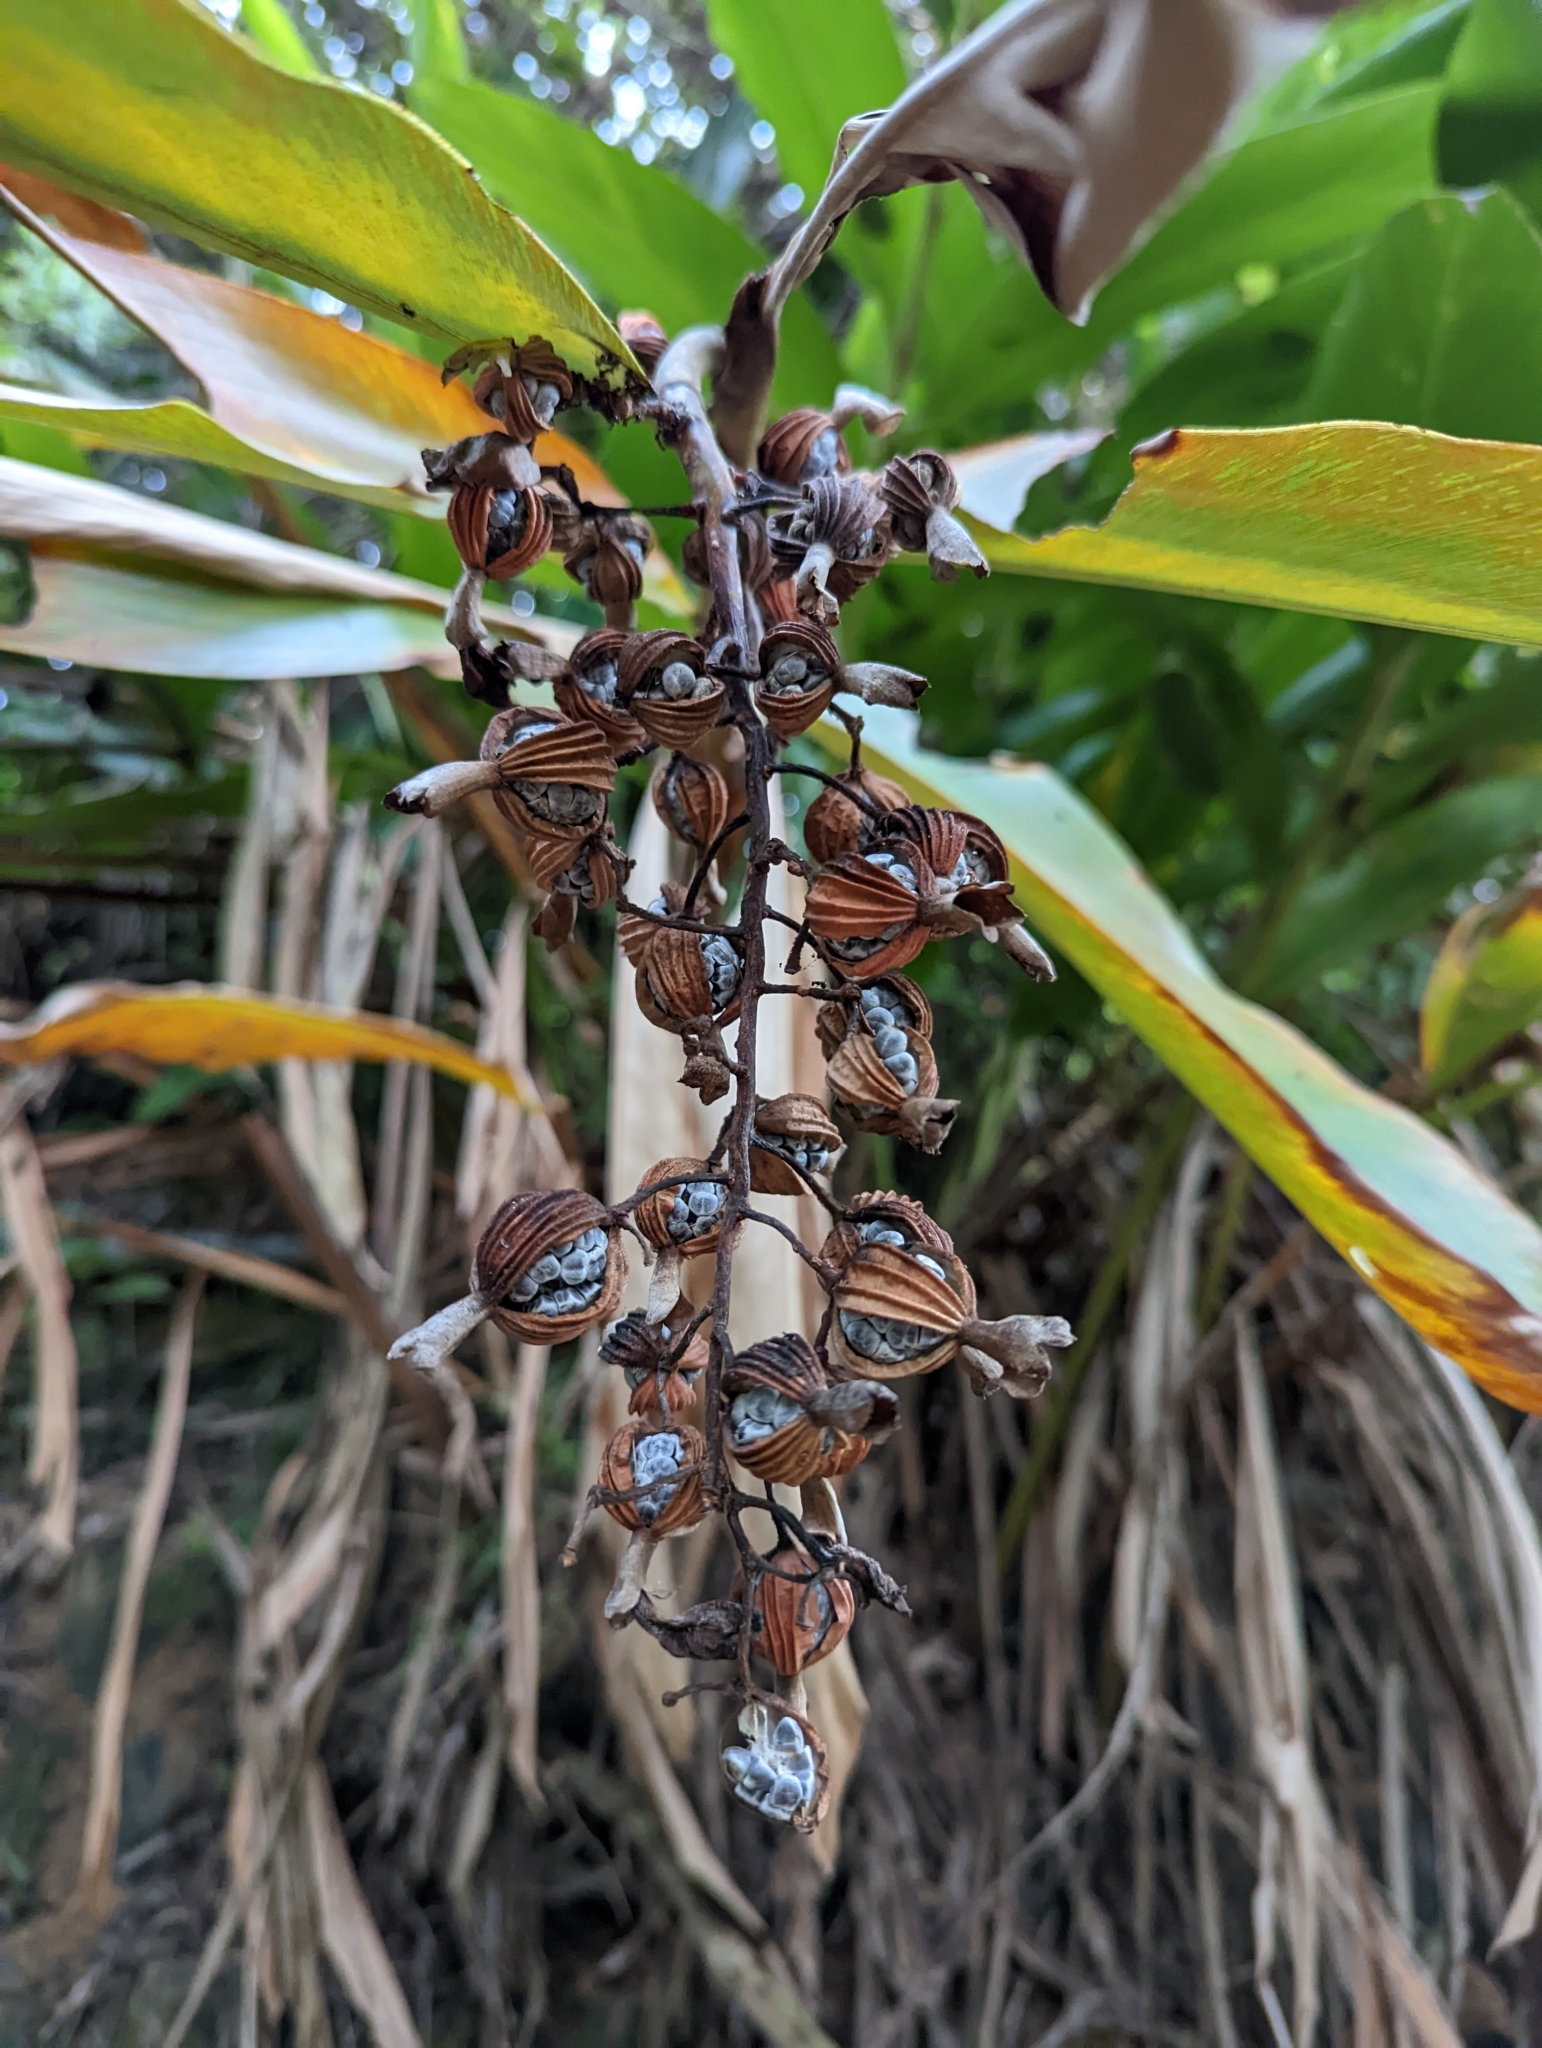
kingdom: Plantae
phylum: Tracheophyta
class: Liliopsida
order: Zingiberales
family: Zingiberaceae
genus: Alpinia
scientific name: Alpinia zerumbet
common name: Shellplant
